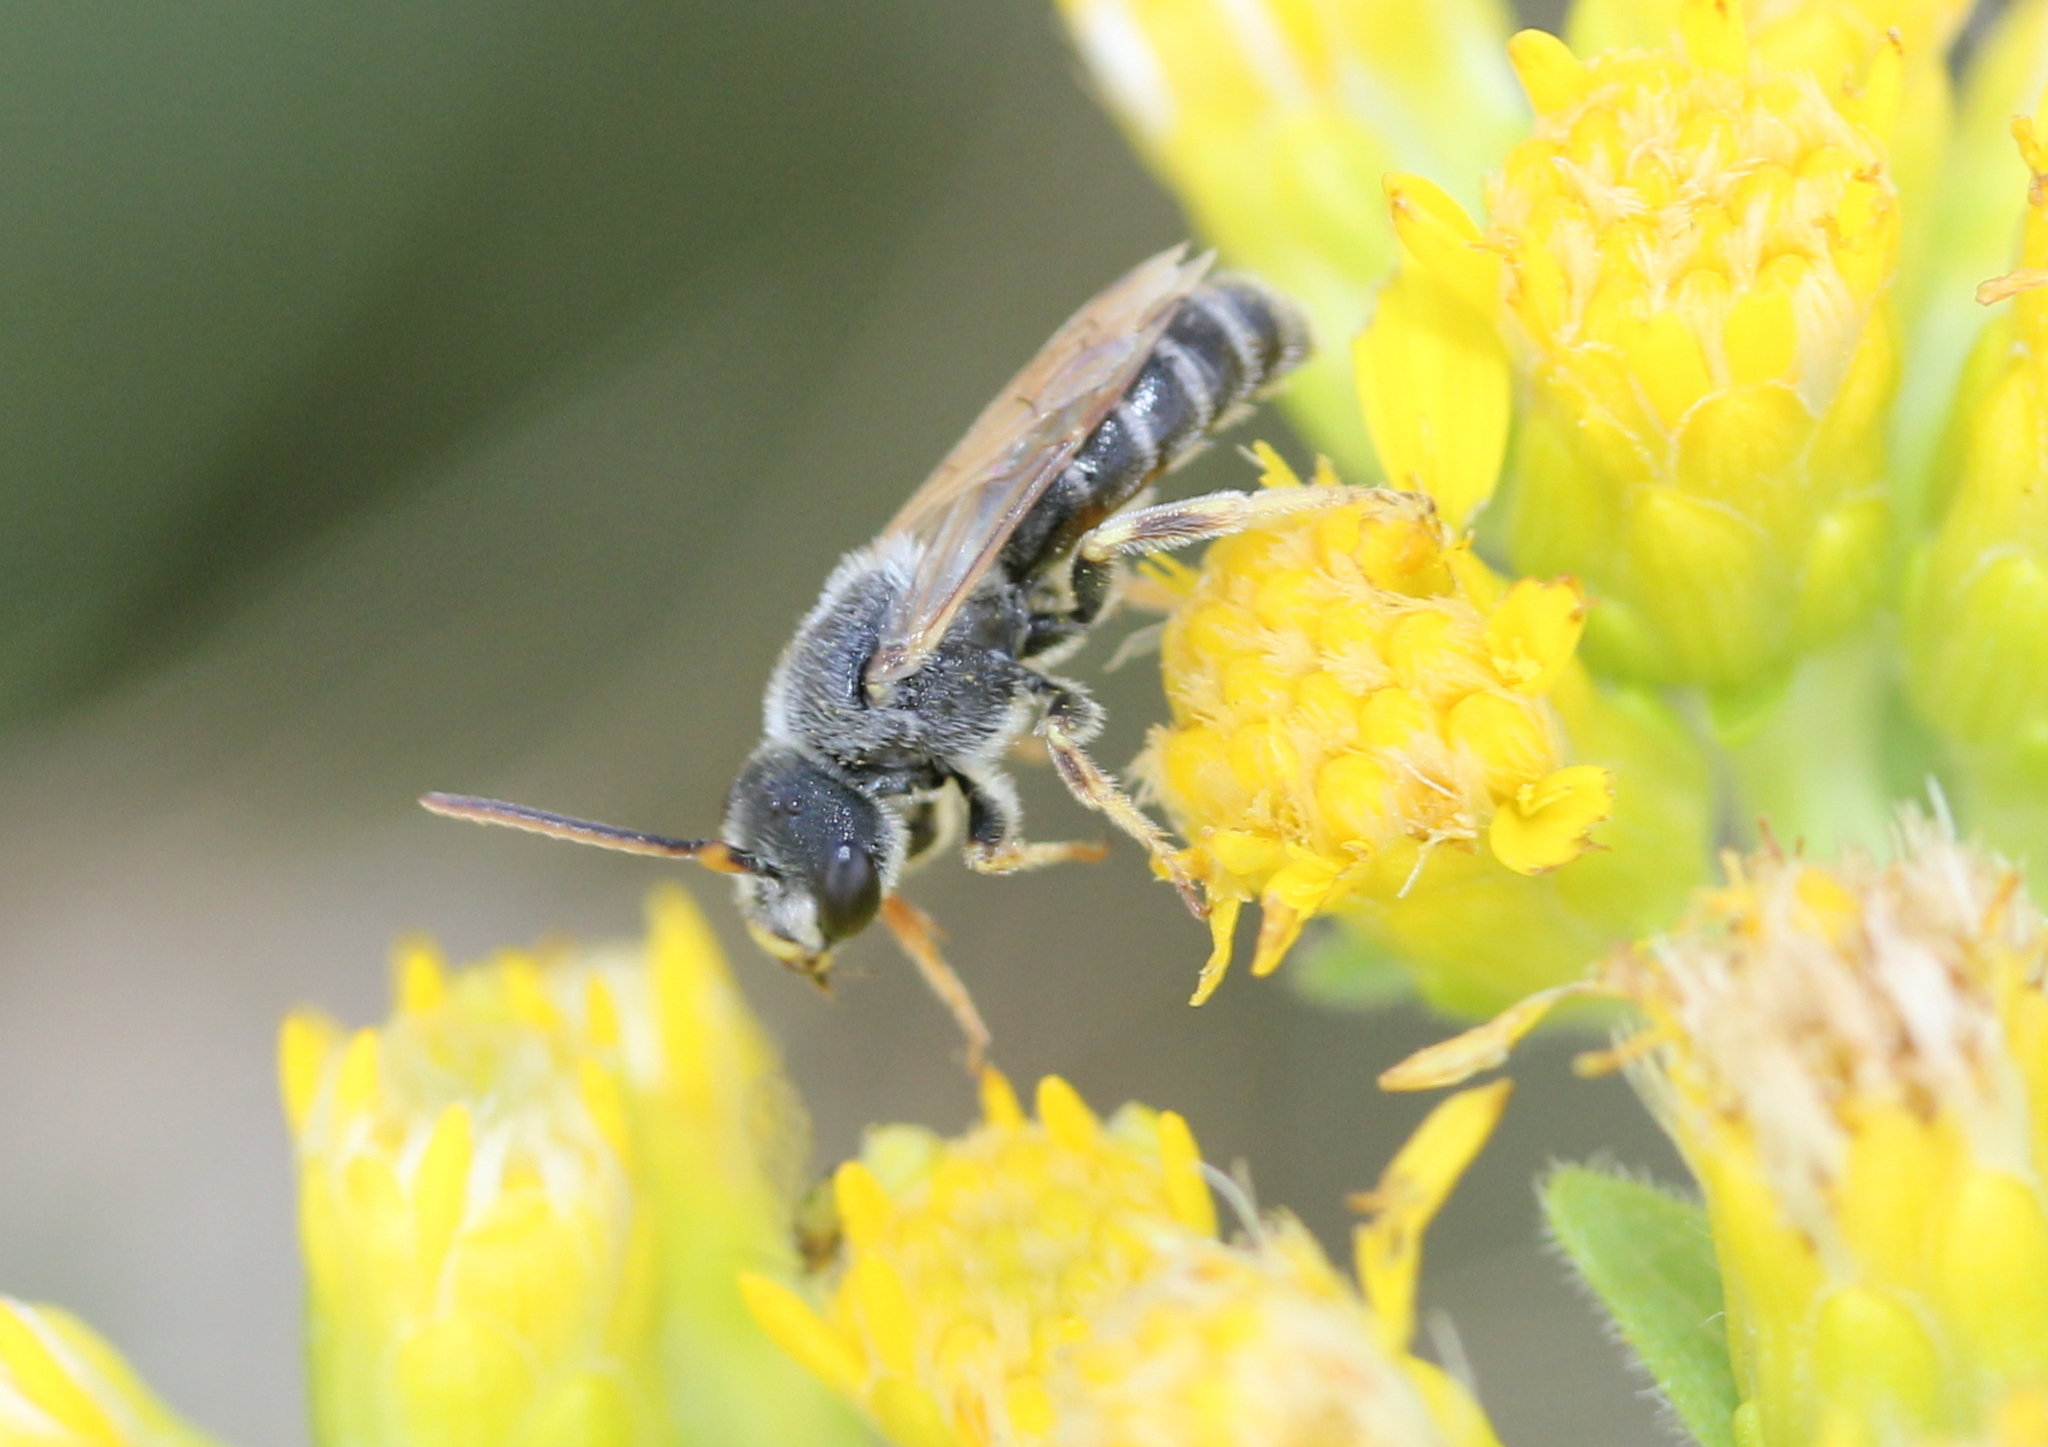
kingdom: Animalia
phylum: Arthropoda
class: Insecta
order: Hymenoptera
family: Halictidae
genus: Halictus
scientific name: Halictus ligatus
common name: Ligated furrow bee
